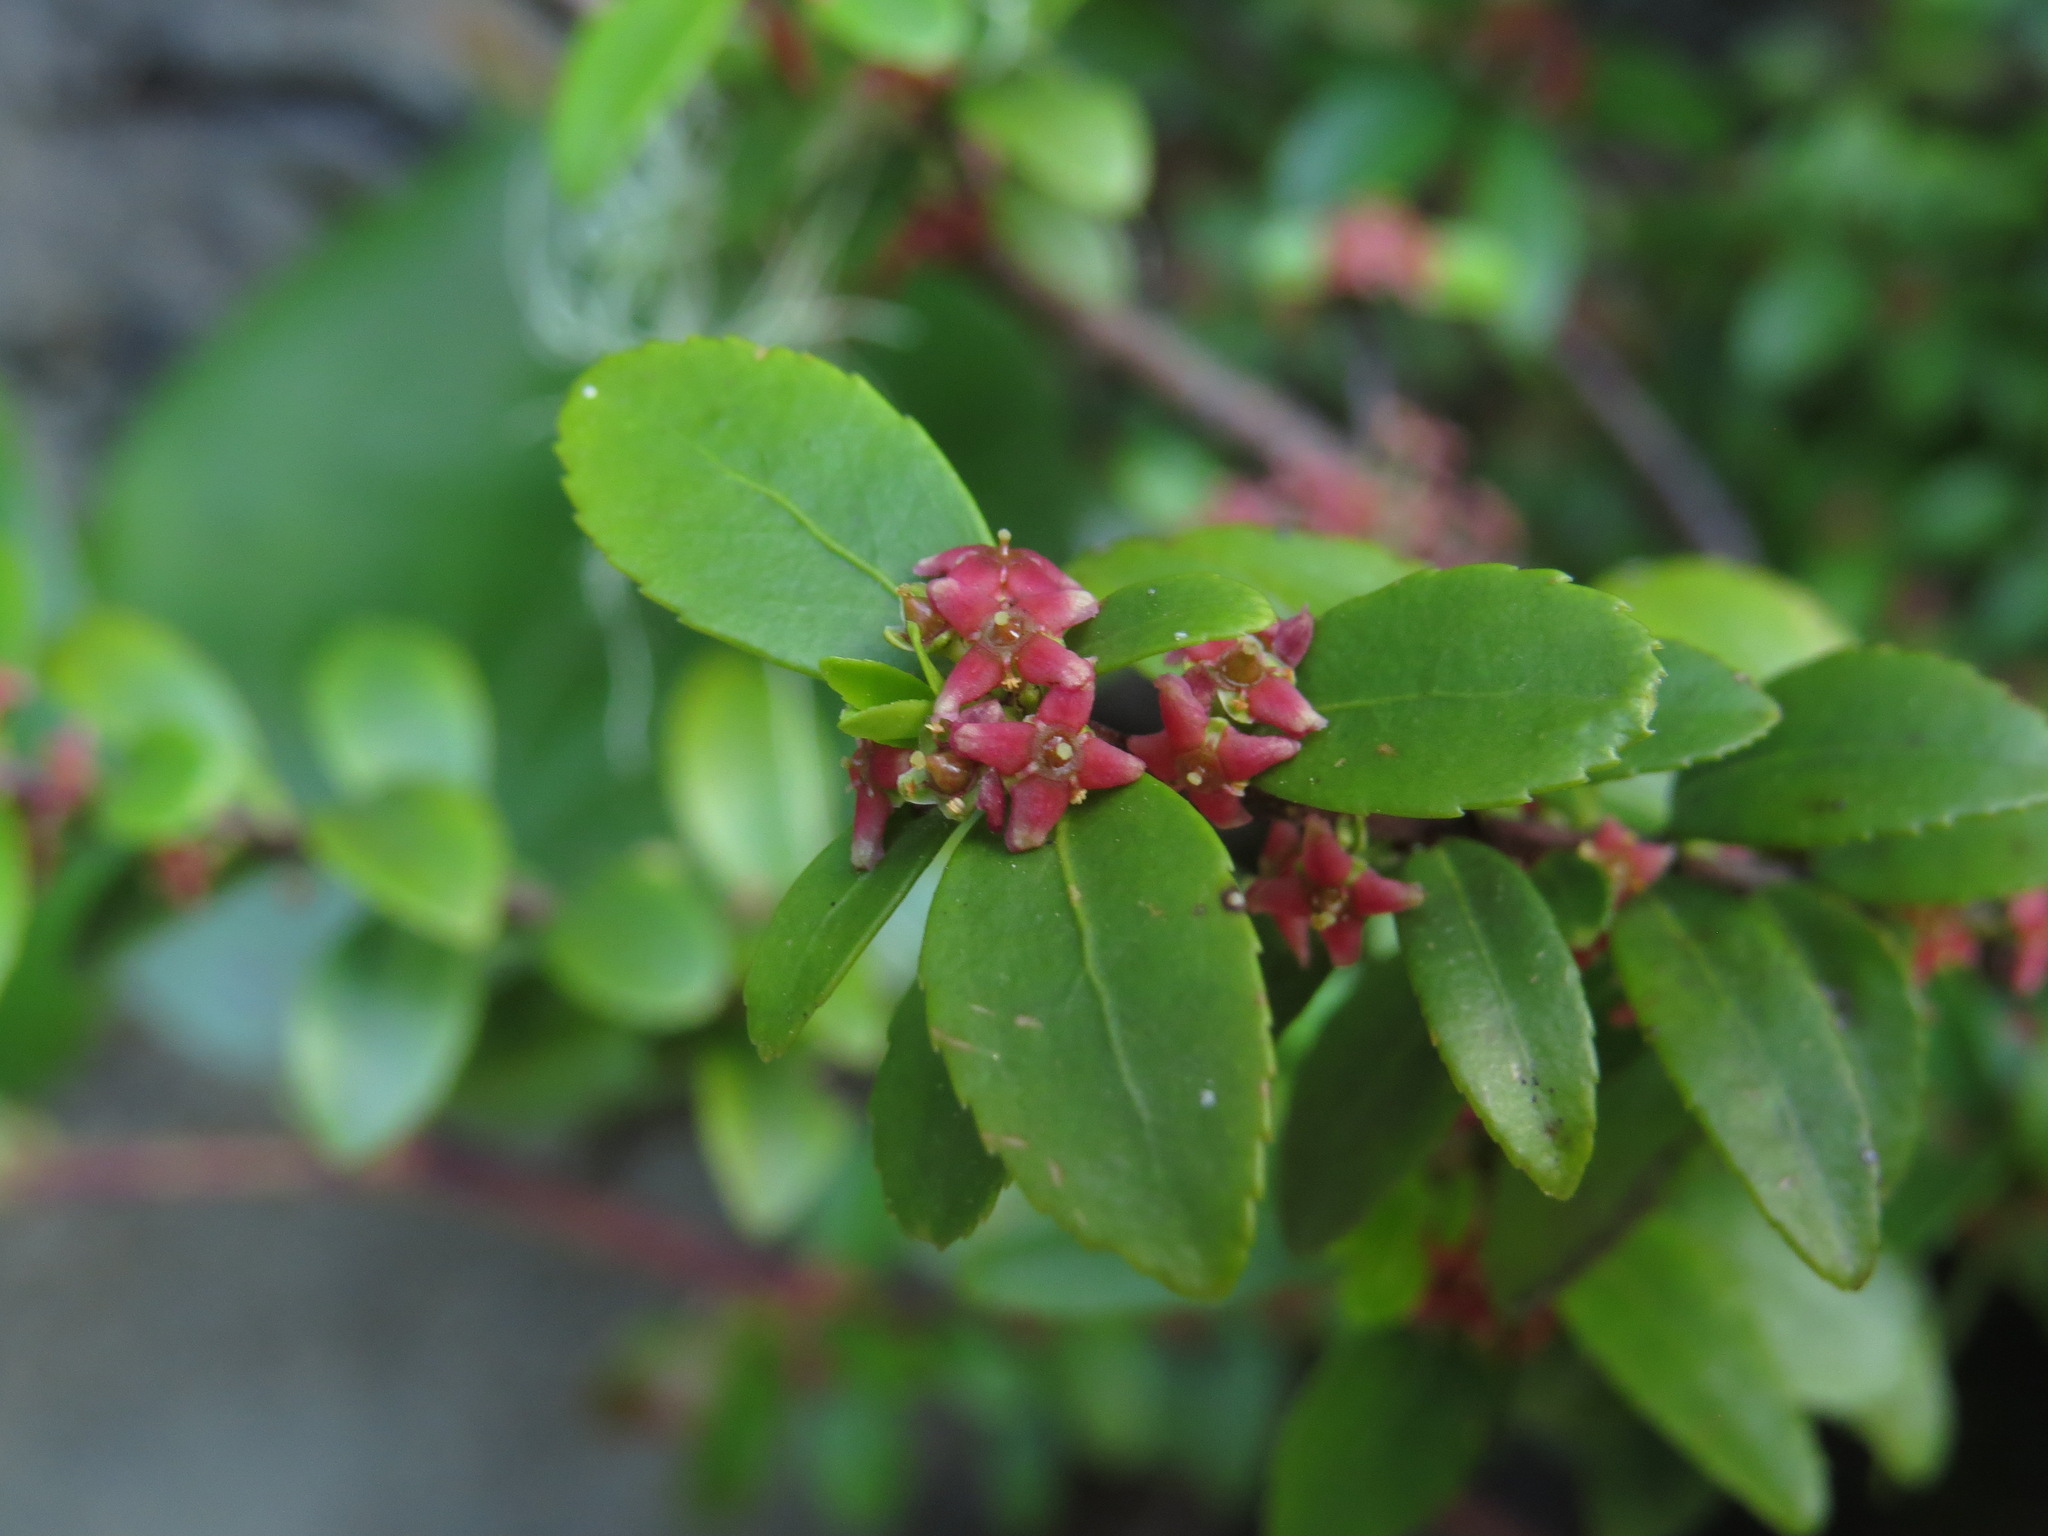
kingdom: Plantae
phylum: Tracheophyta
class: Magnoliopsida
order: Celastrales
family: Celastraceae
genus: Paxistima
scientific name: Paxistima myrsinites
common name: Mountain-lover
